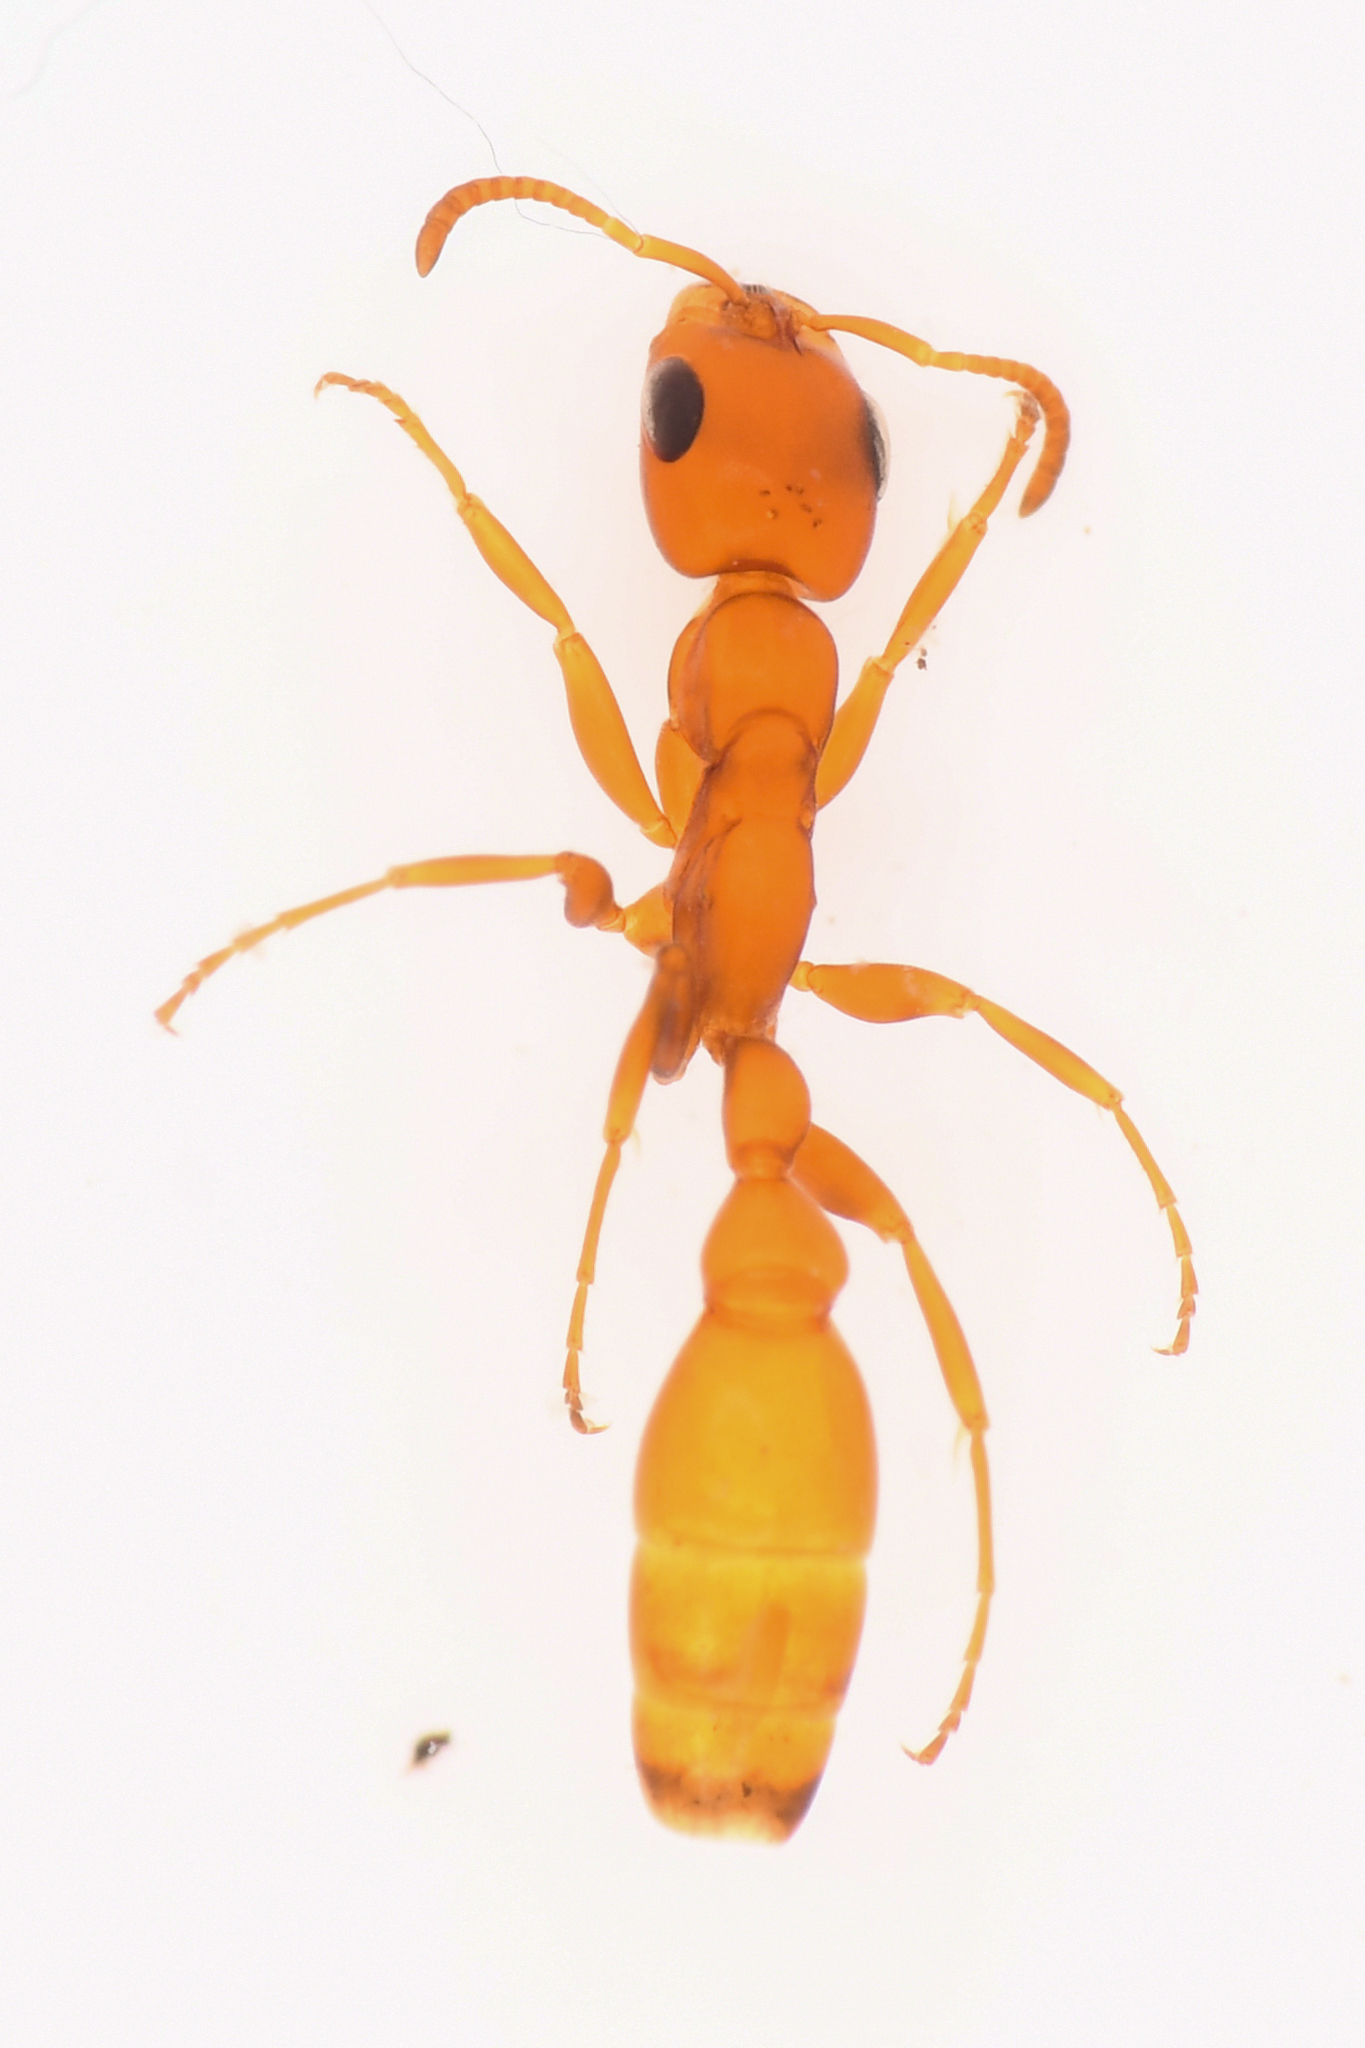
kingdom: Animalia
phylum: Arthropoda
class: Insecta
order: Hymenoptera
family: Formicidae
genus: Pseudomyrmex
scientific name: Pseudomyrmex apache
